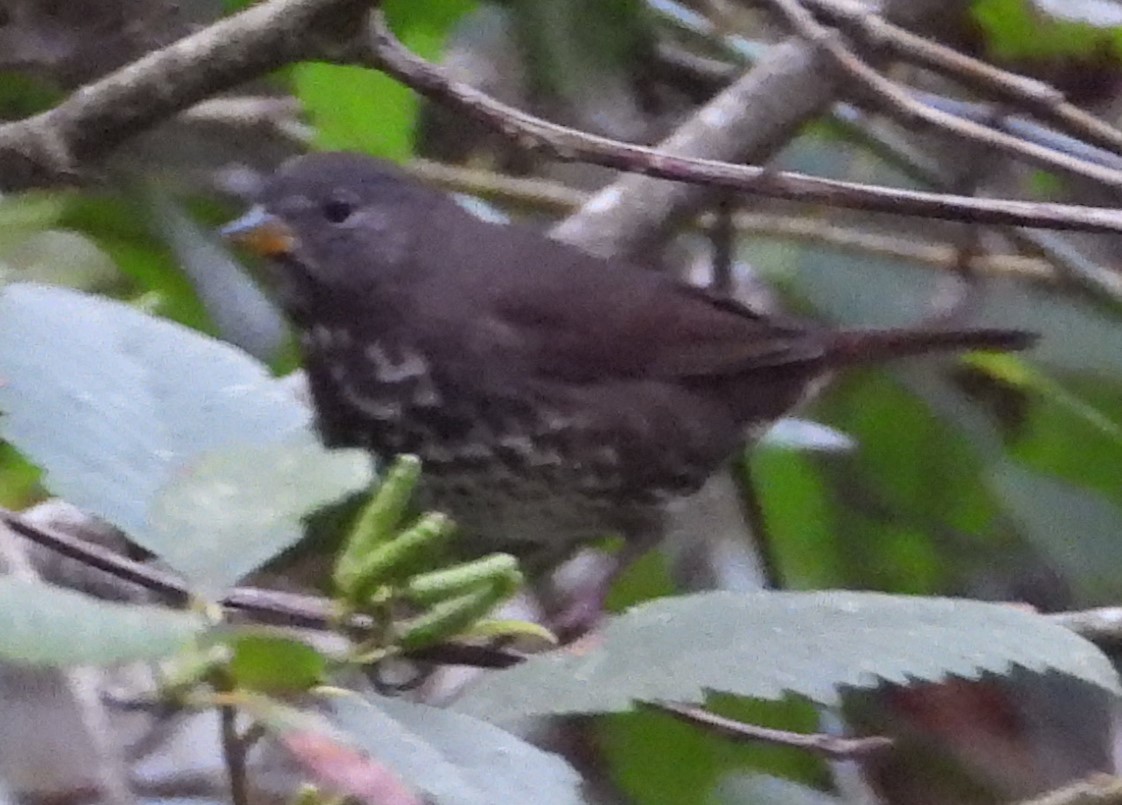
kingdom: Animalia
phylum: Chordata
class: Aves
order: Passeriformes
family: Passerellidae
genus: Passerella
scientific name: Passerella iliaca
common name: Fox sparrow
